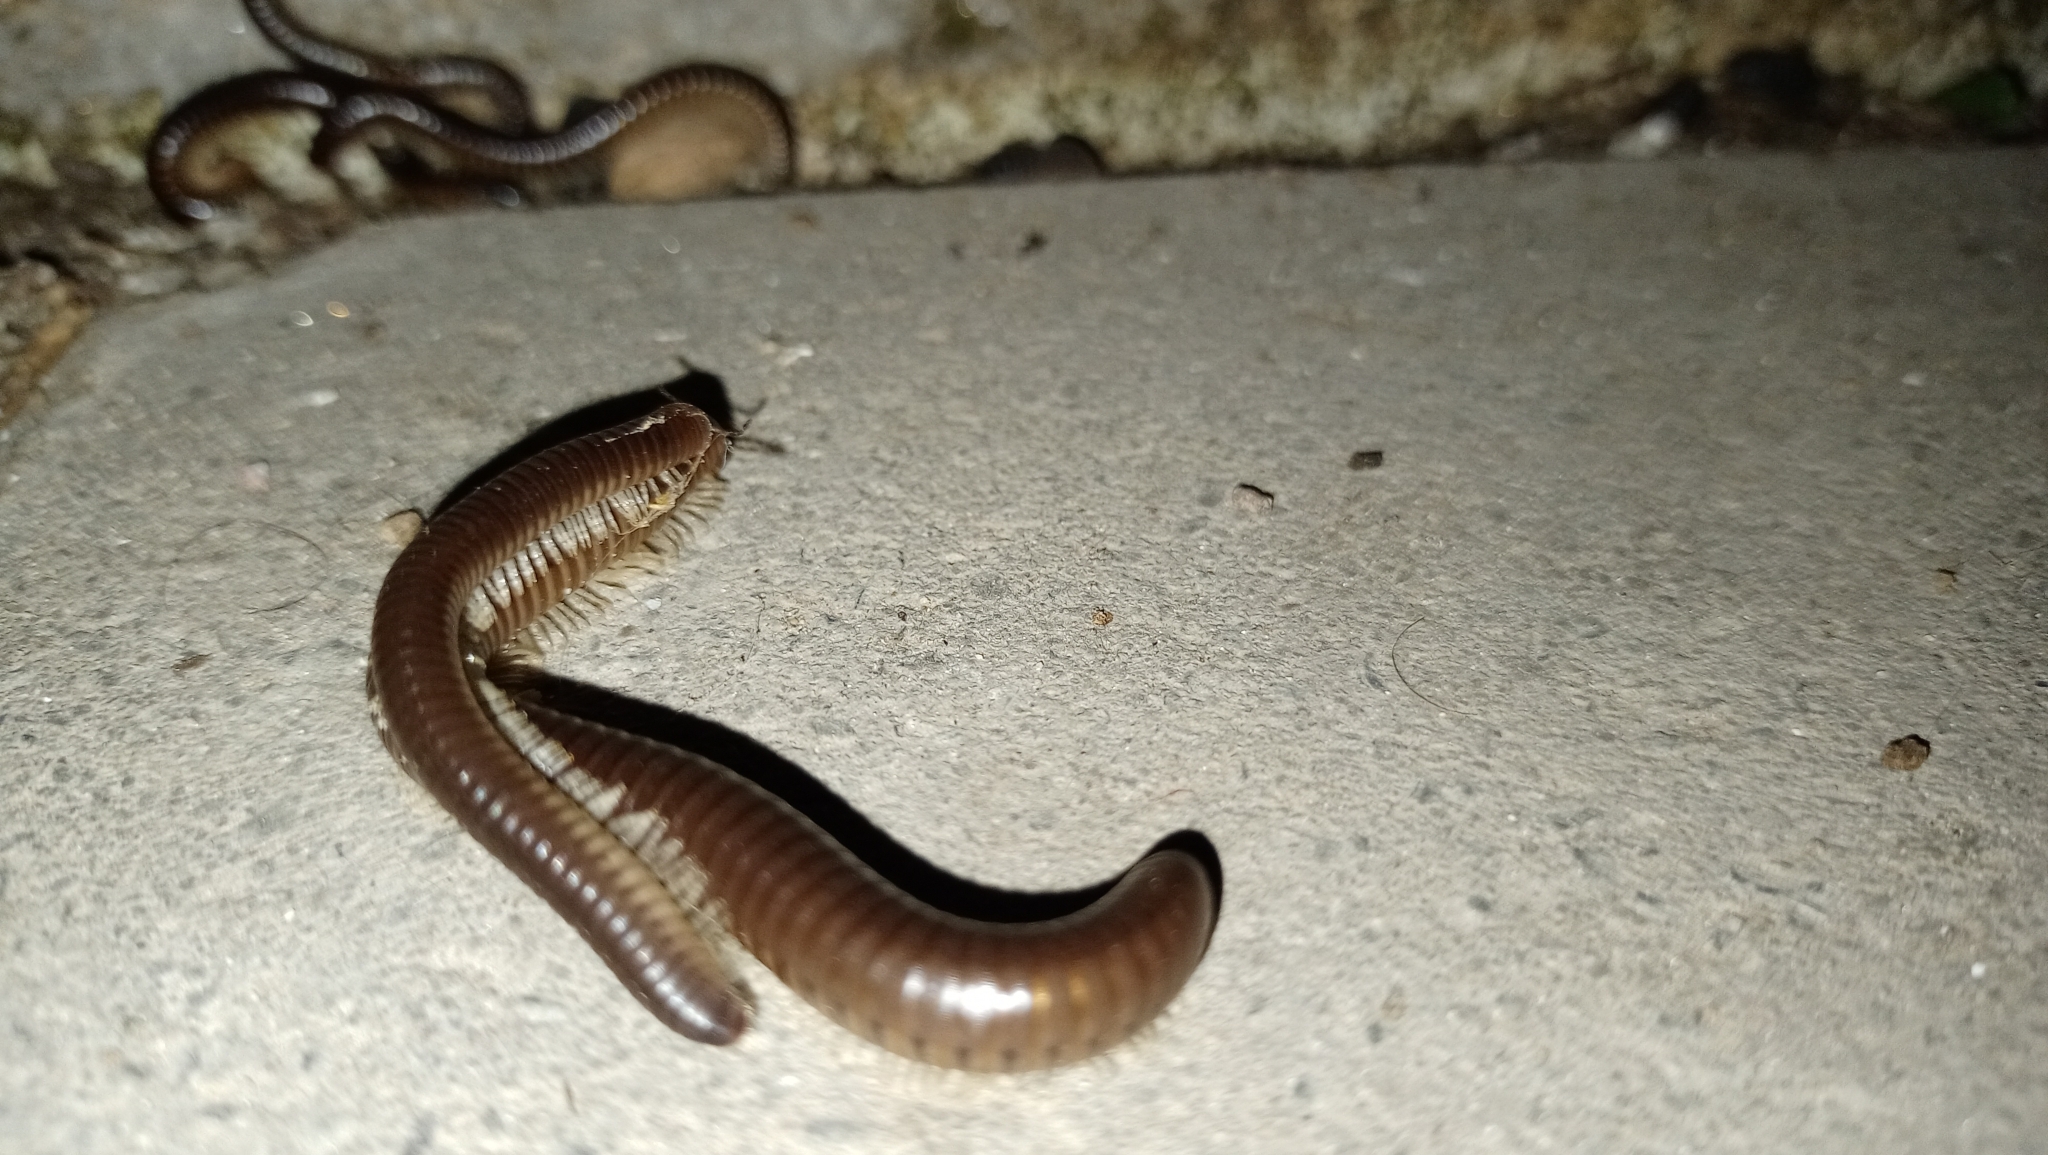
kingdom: Animalia
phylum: Arthropoda
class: Diplopoda
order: Julida
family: Julidae
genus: Pachyiulus
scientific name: Pachyiulus flavipes
